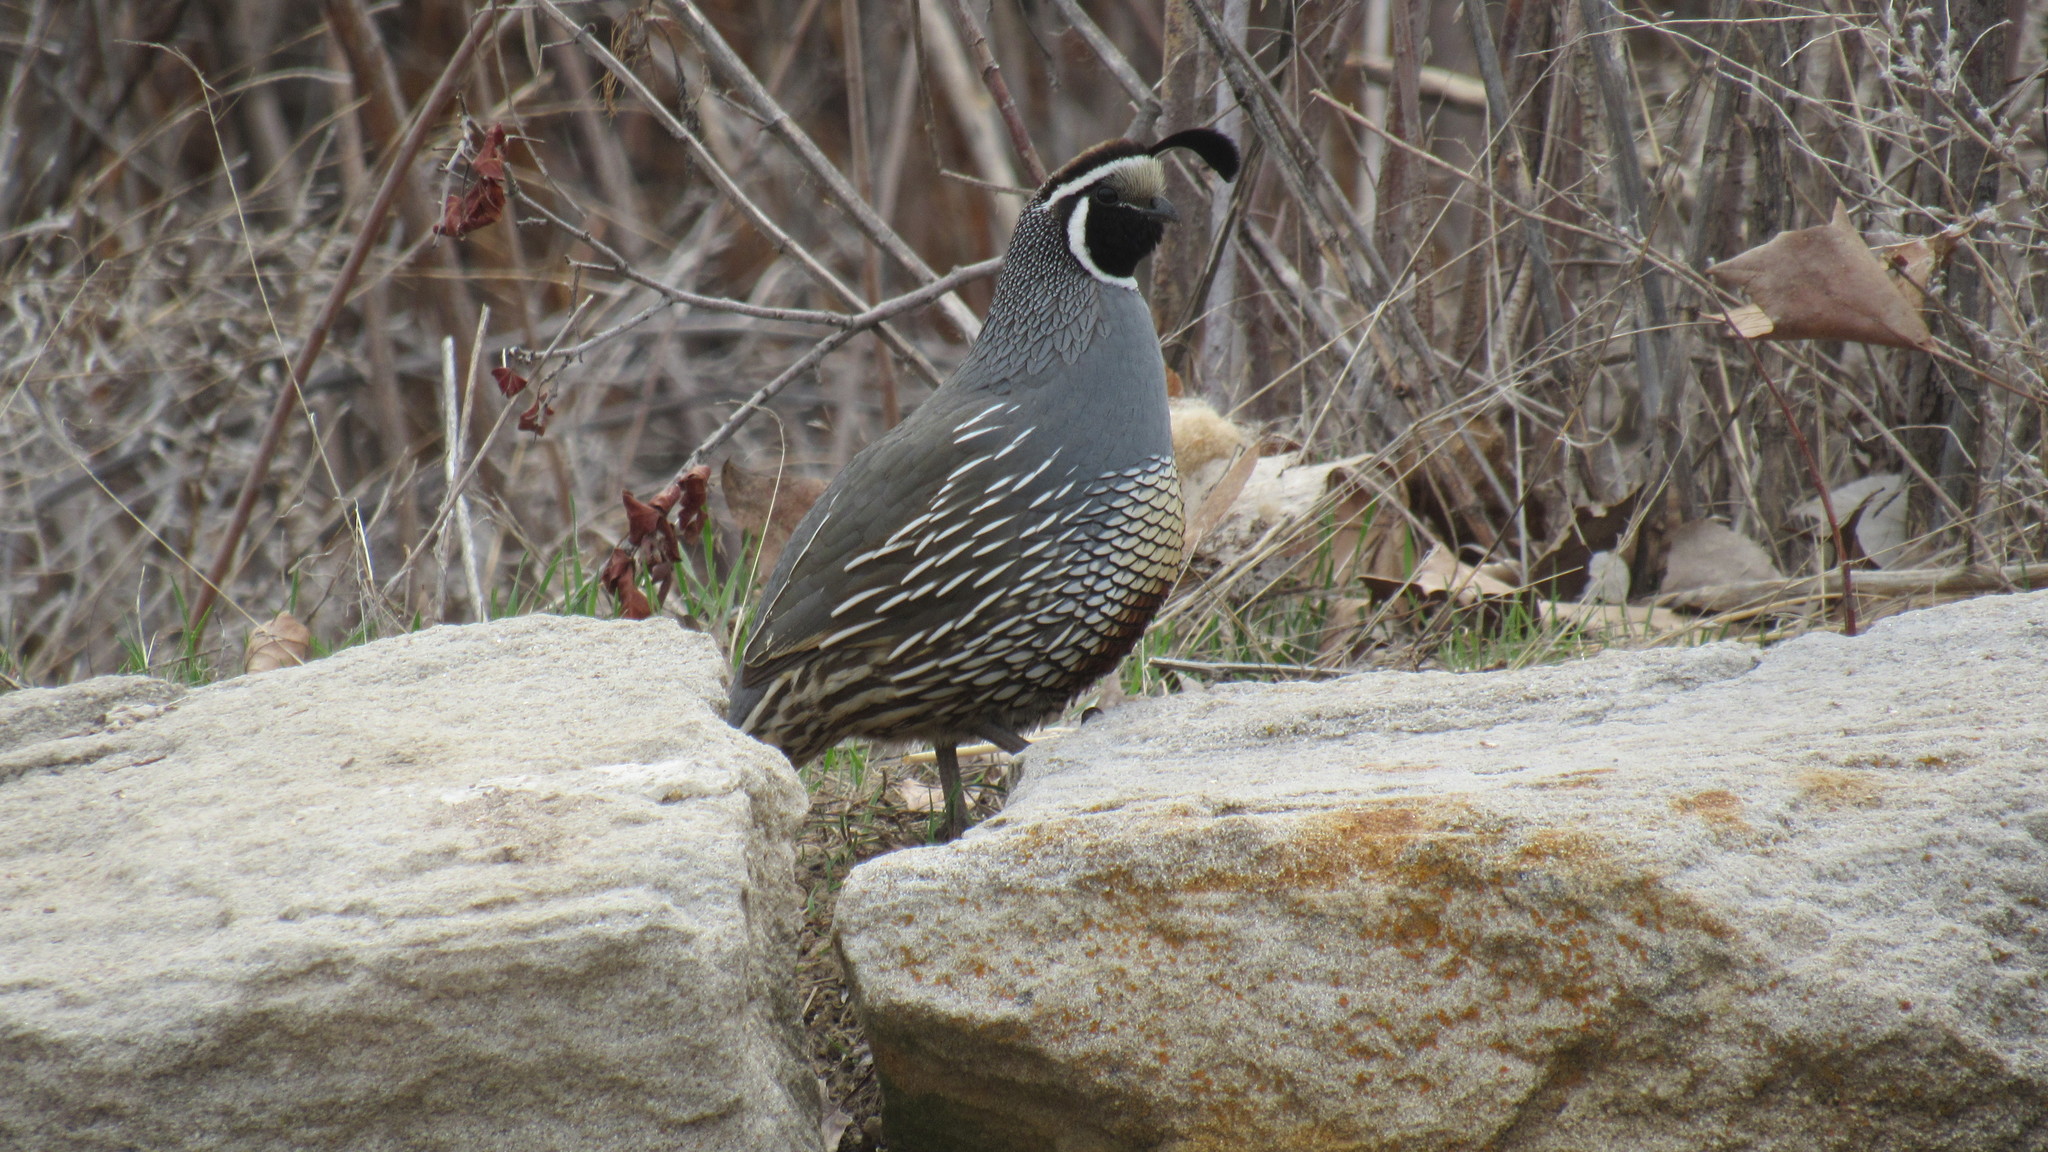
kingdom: Animalia
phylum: Chordata
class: Aves
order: Galliformes
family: Odontophoridae
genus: Callipepla
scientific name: Callipepla californica
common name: California quail
